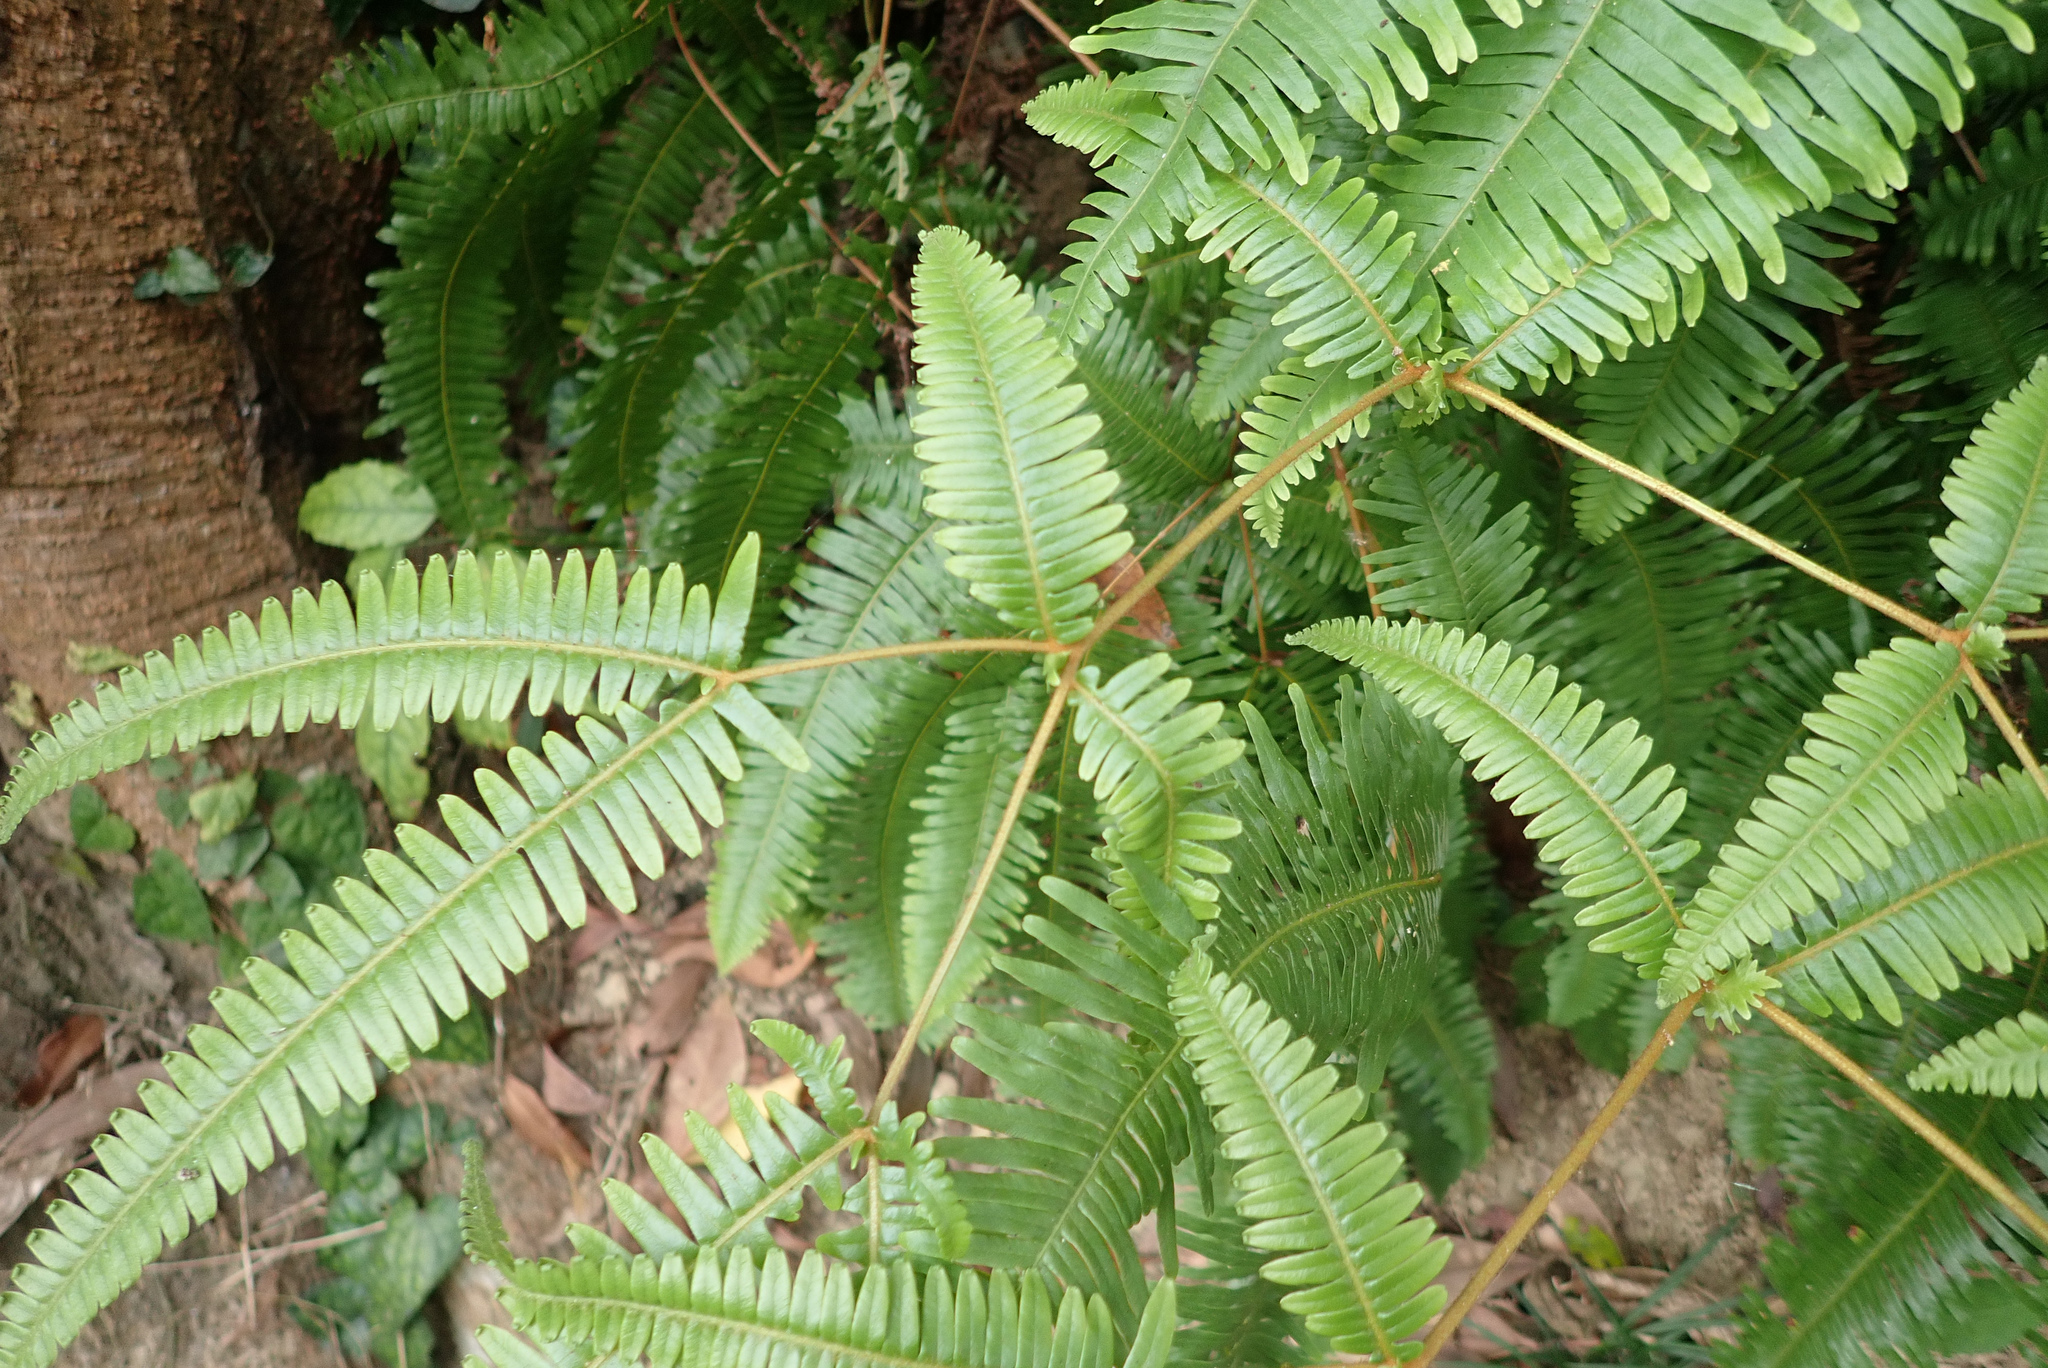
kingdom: Plantae
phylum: Tracheophyta
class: Polypodiopsida
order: Gleicheniales
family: Gleicheniaceae
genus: Dicranopteris
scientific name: Dicranopteris linearis
